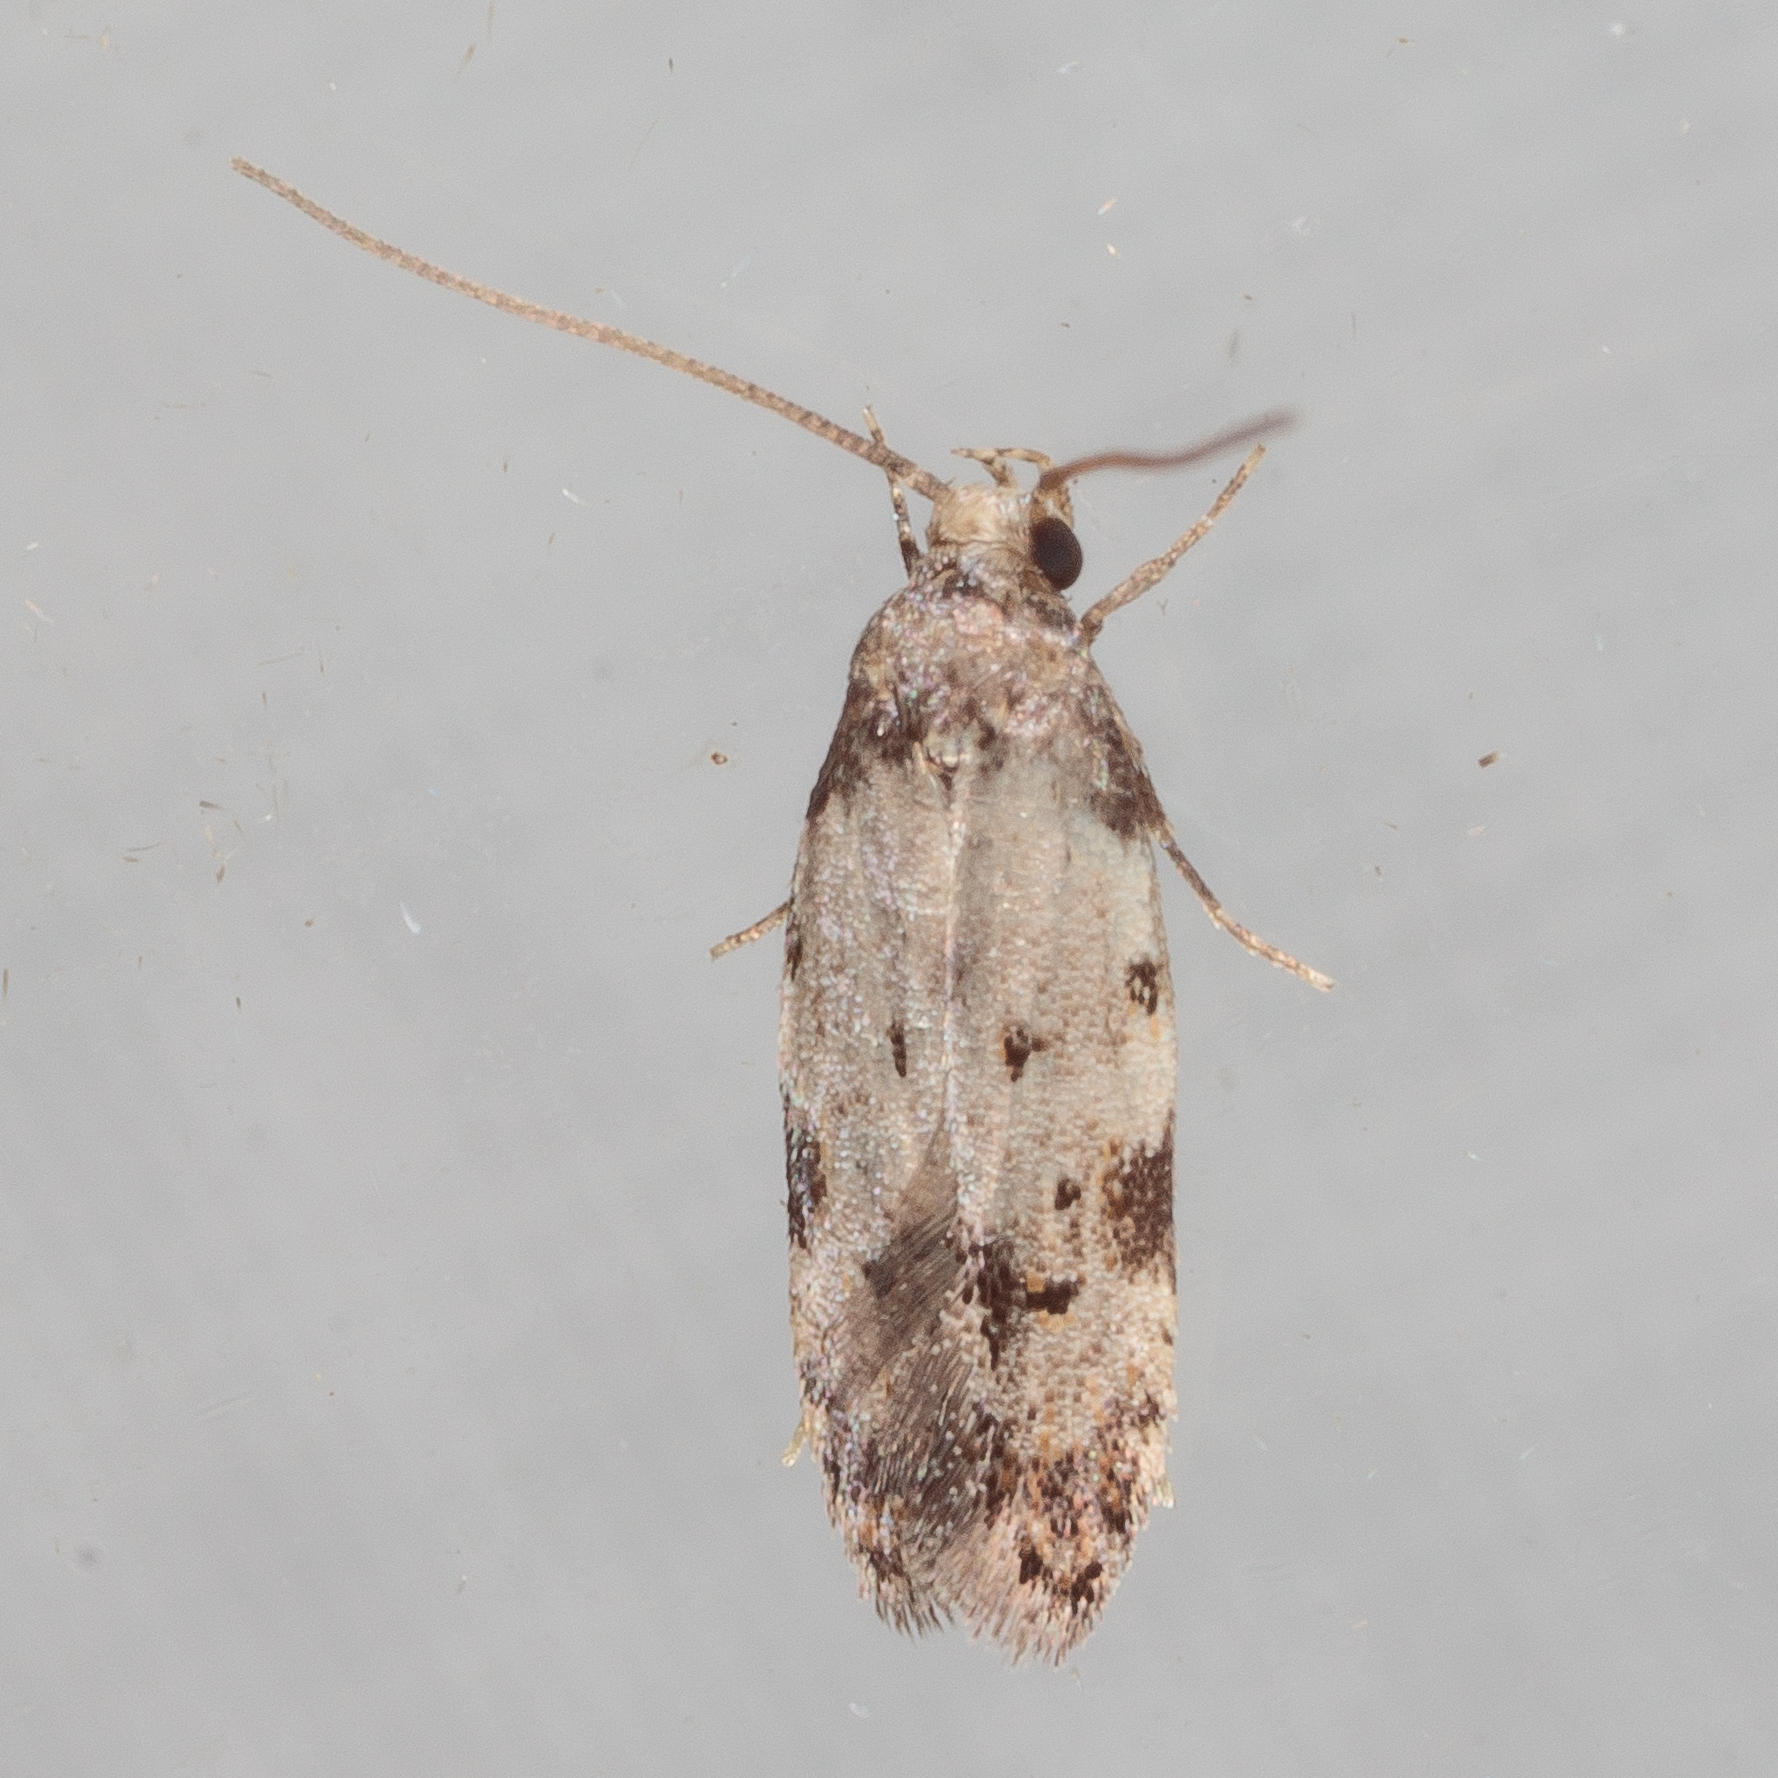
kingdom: Animalia
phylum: Arthropoda
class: Insecta
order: Lepidoptera
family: Autostichidae
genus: Taygete
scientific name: Taygete attributella
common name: Triangle-marked twirler moth
